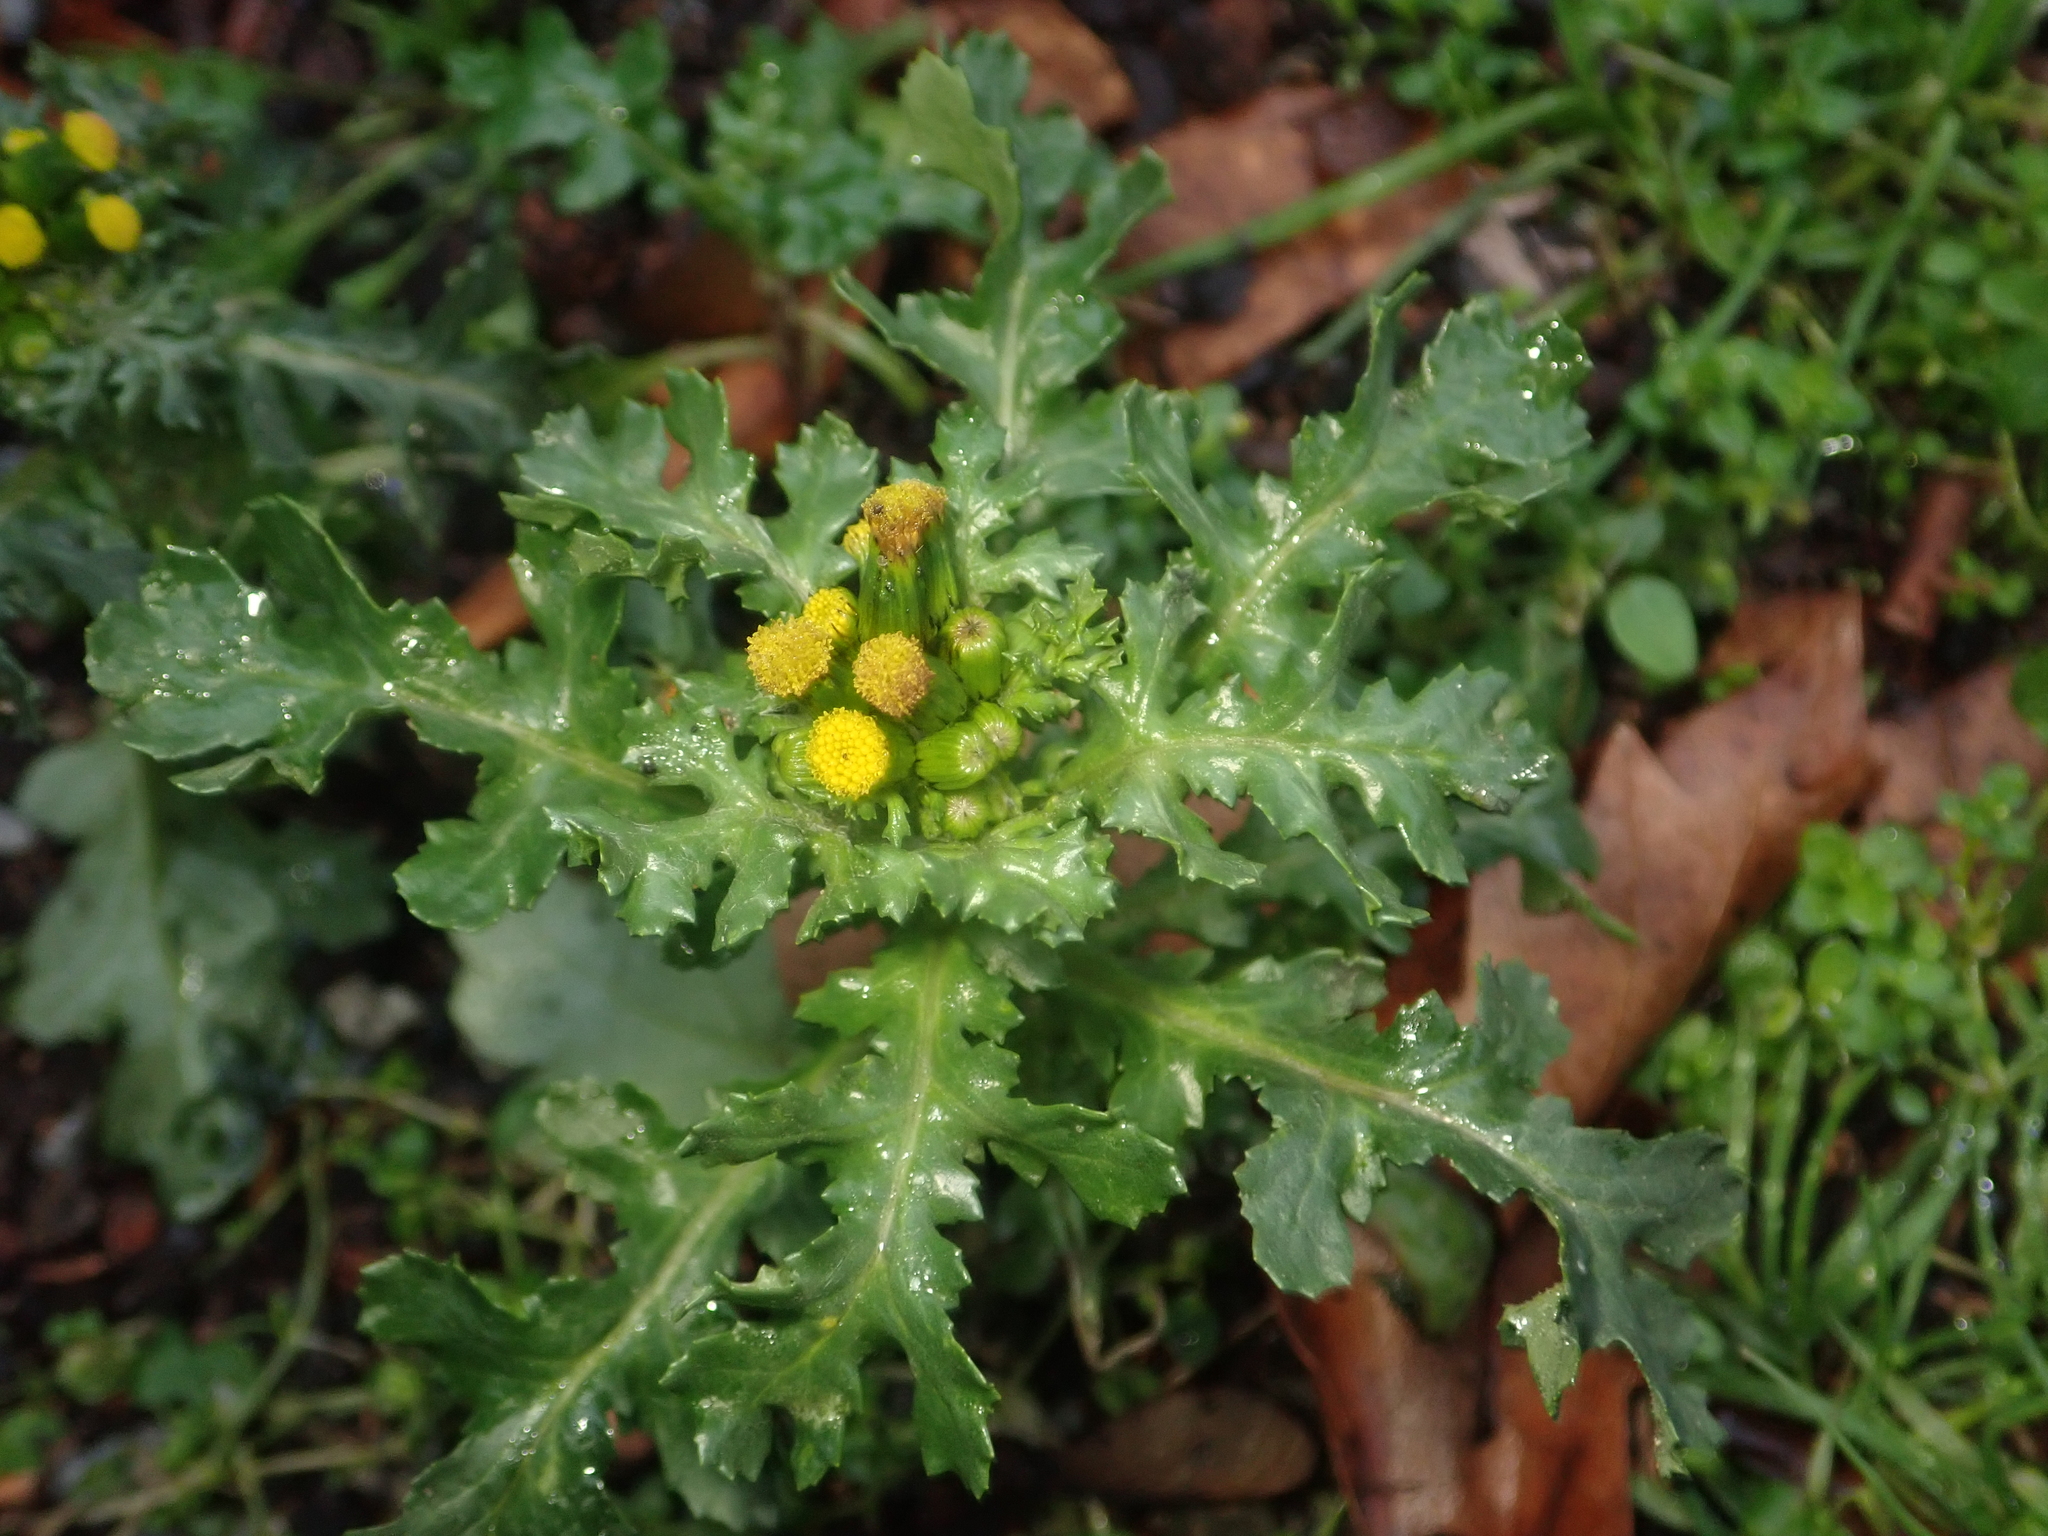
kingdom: Plantae
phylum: Tracheophyta
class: Magnoliopsida
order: Asterales
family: Asteraceae
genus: Senecio
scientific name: Senecio vulgaris
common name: Old-man-in-the-spring
